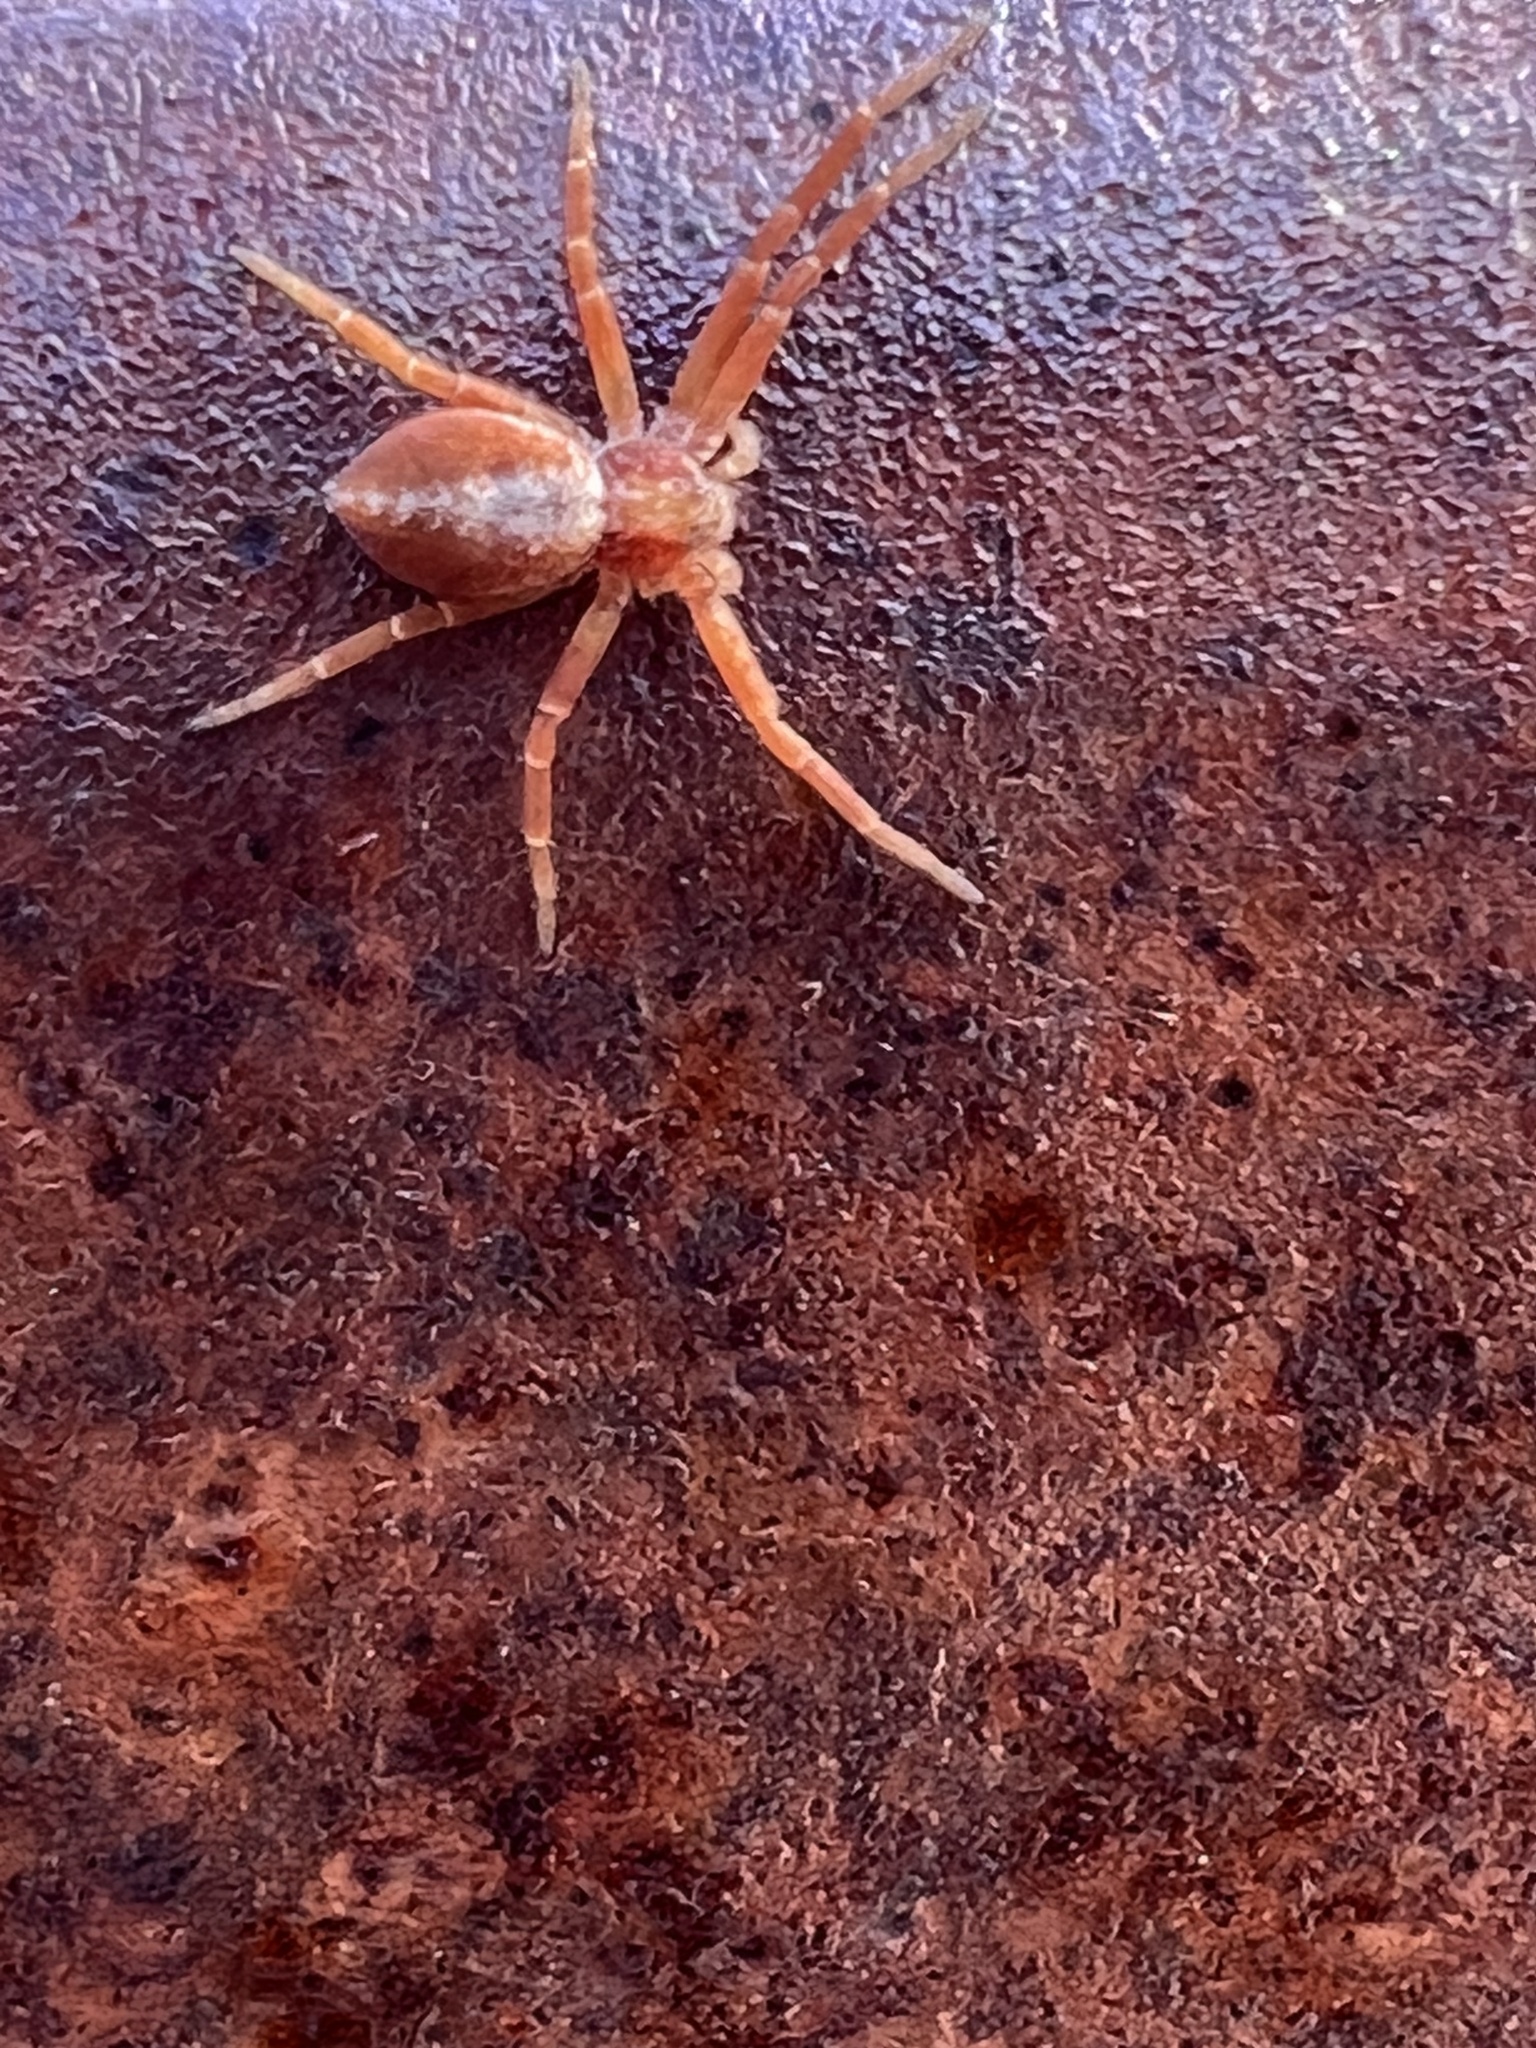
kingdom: Animalia
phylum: Arthropoda
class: Arachnida
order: Araneae
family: Philodromidae
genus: Philodromus
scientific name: Philodromus rufus
